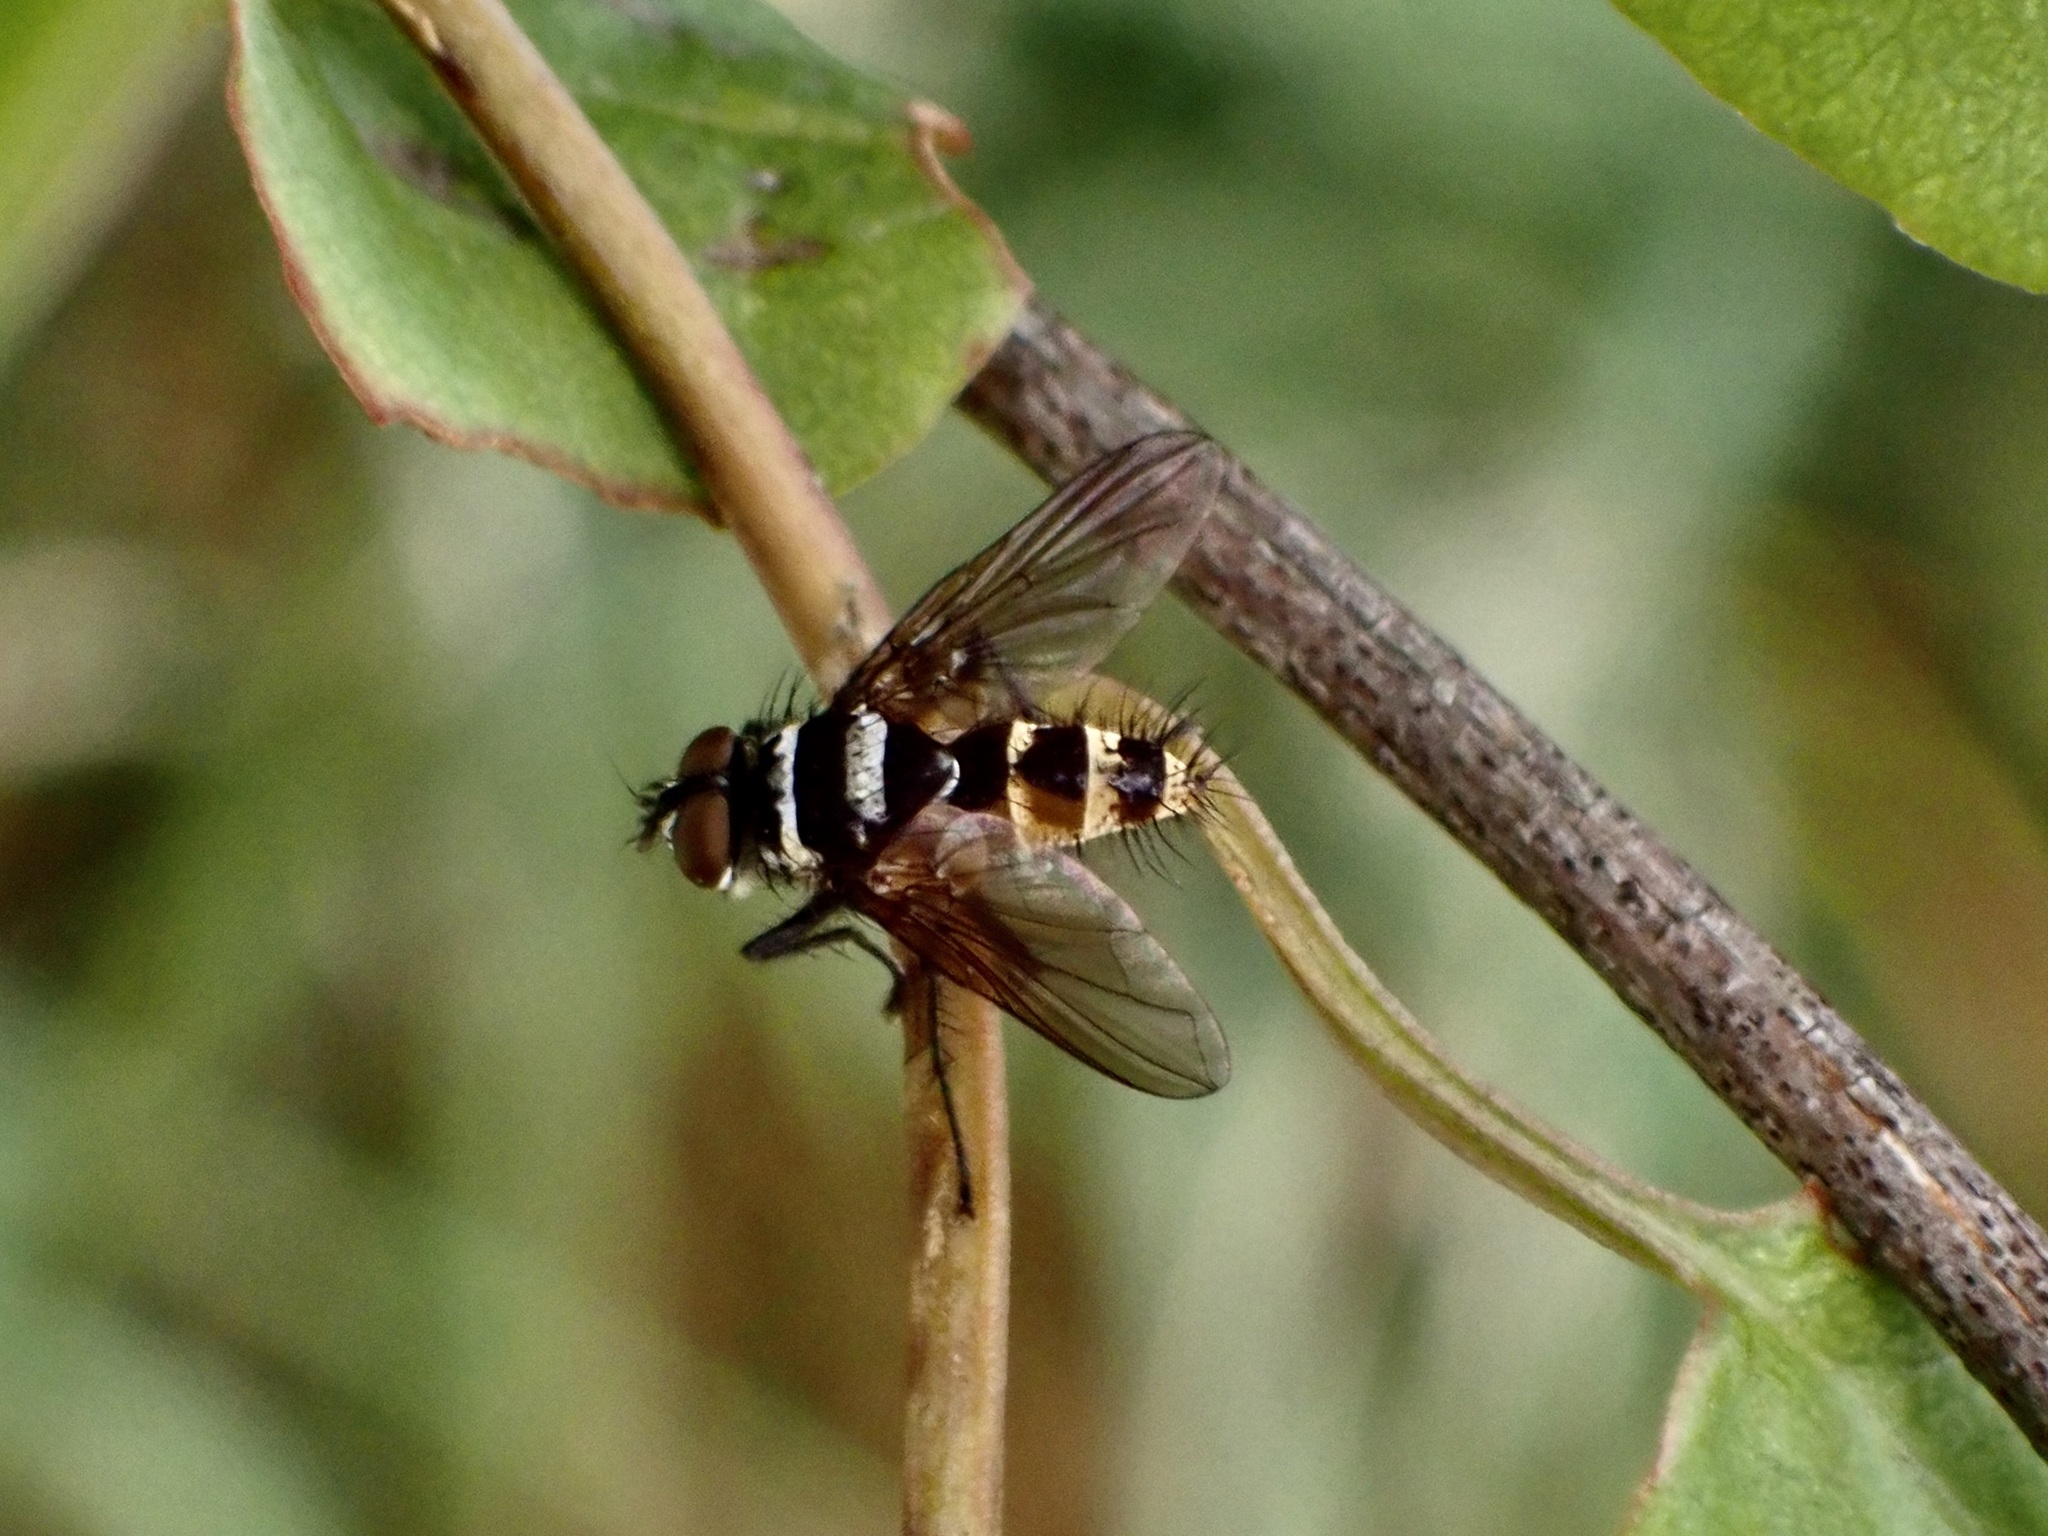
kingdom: Animalia
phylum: Arthropoda
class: Insecta
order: Diptera
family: Tachinidae
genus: Trigonospila
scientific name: Trigonospila brevifacies
